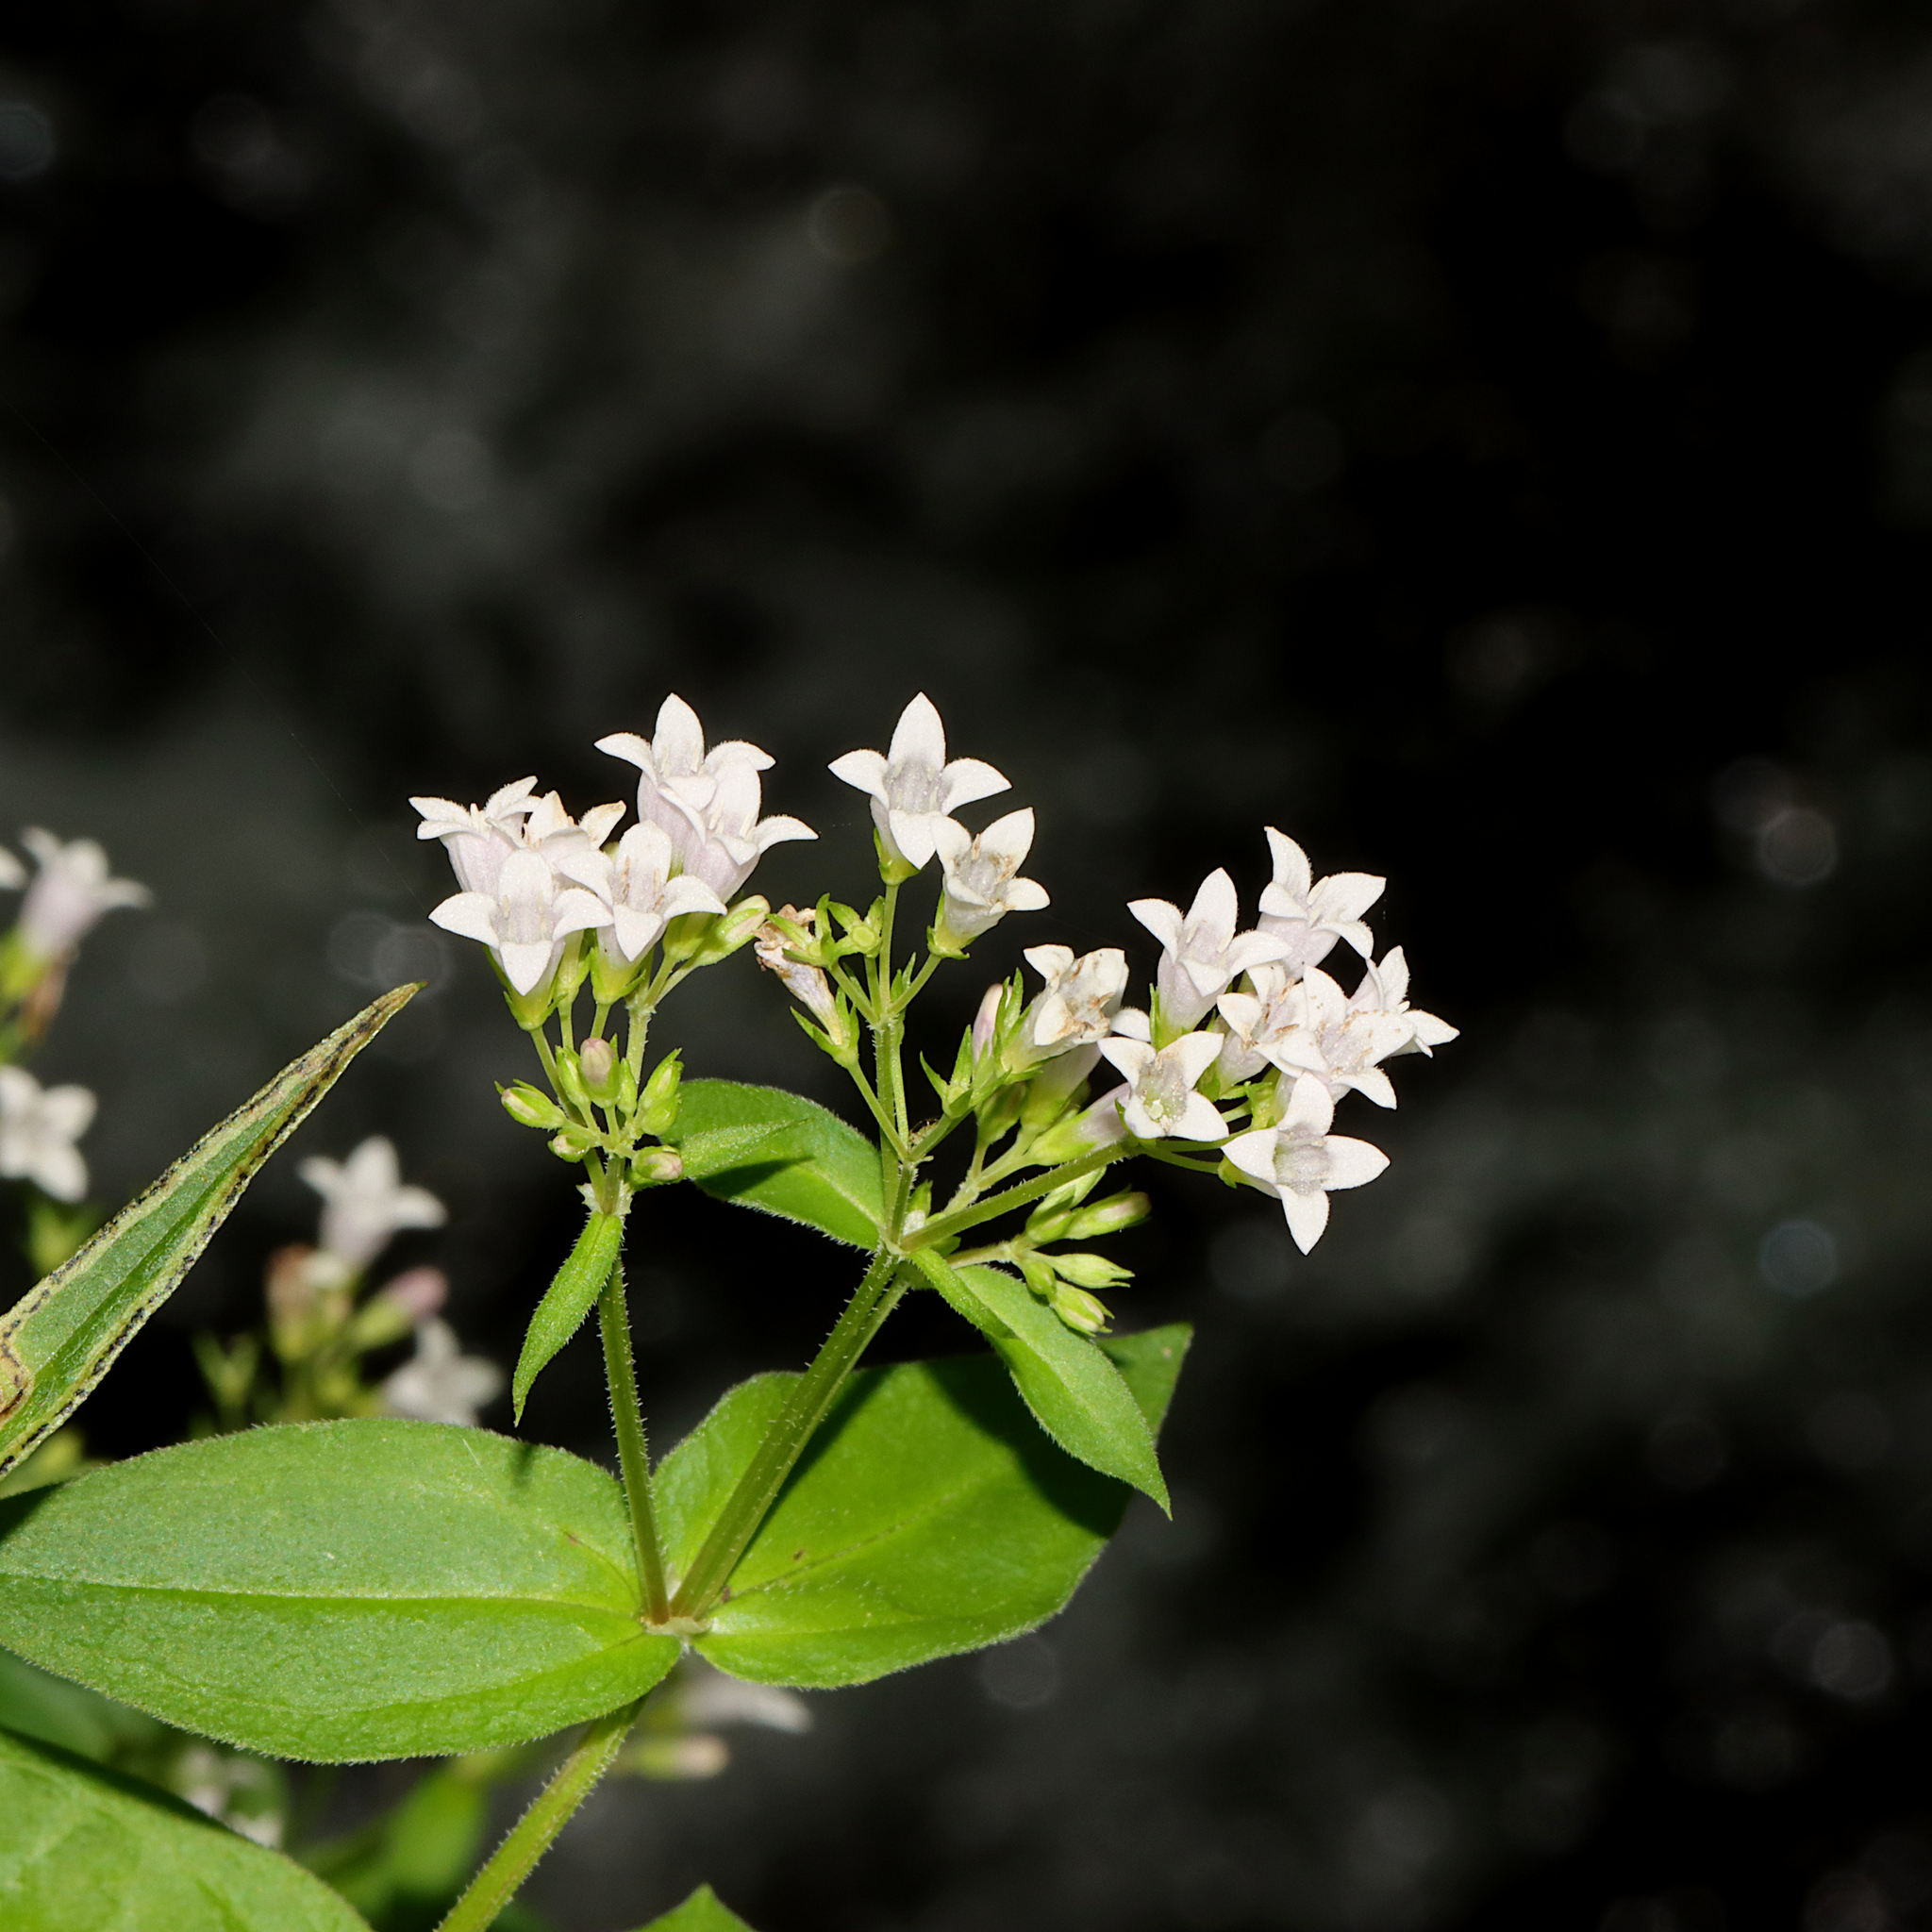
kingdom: Plantae
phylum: Tracheophyta
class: Magnoliopsida
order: Gentianales
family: Rubiaceae
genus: Houstonia
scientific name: Houstonia purpurea
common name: Summer bluet
